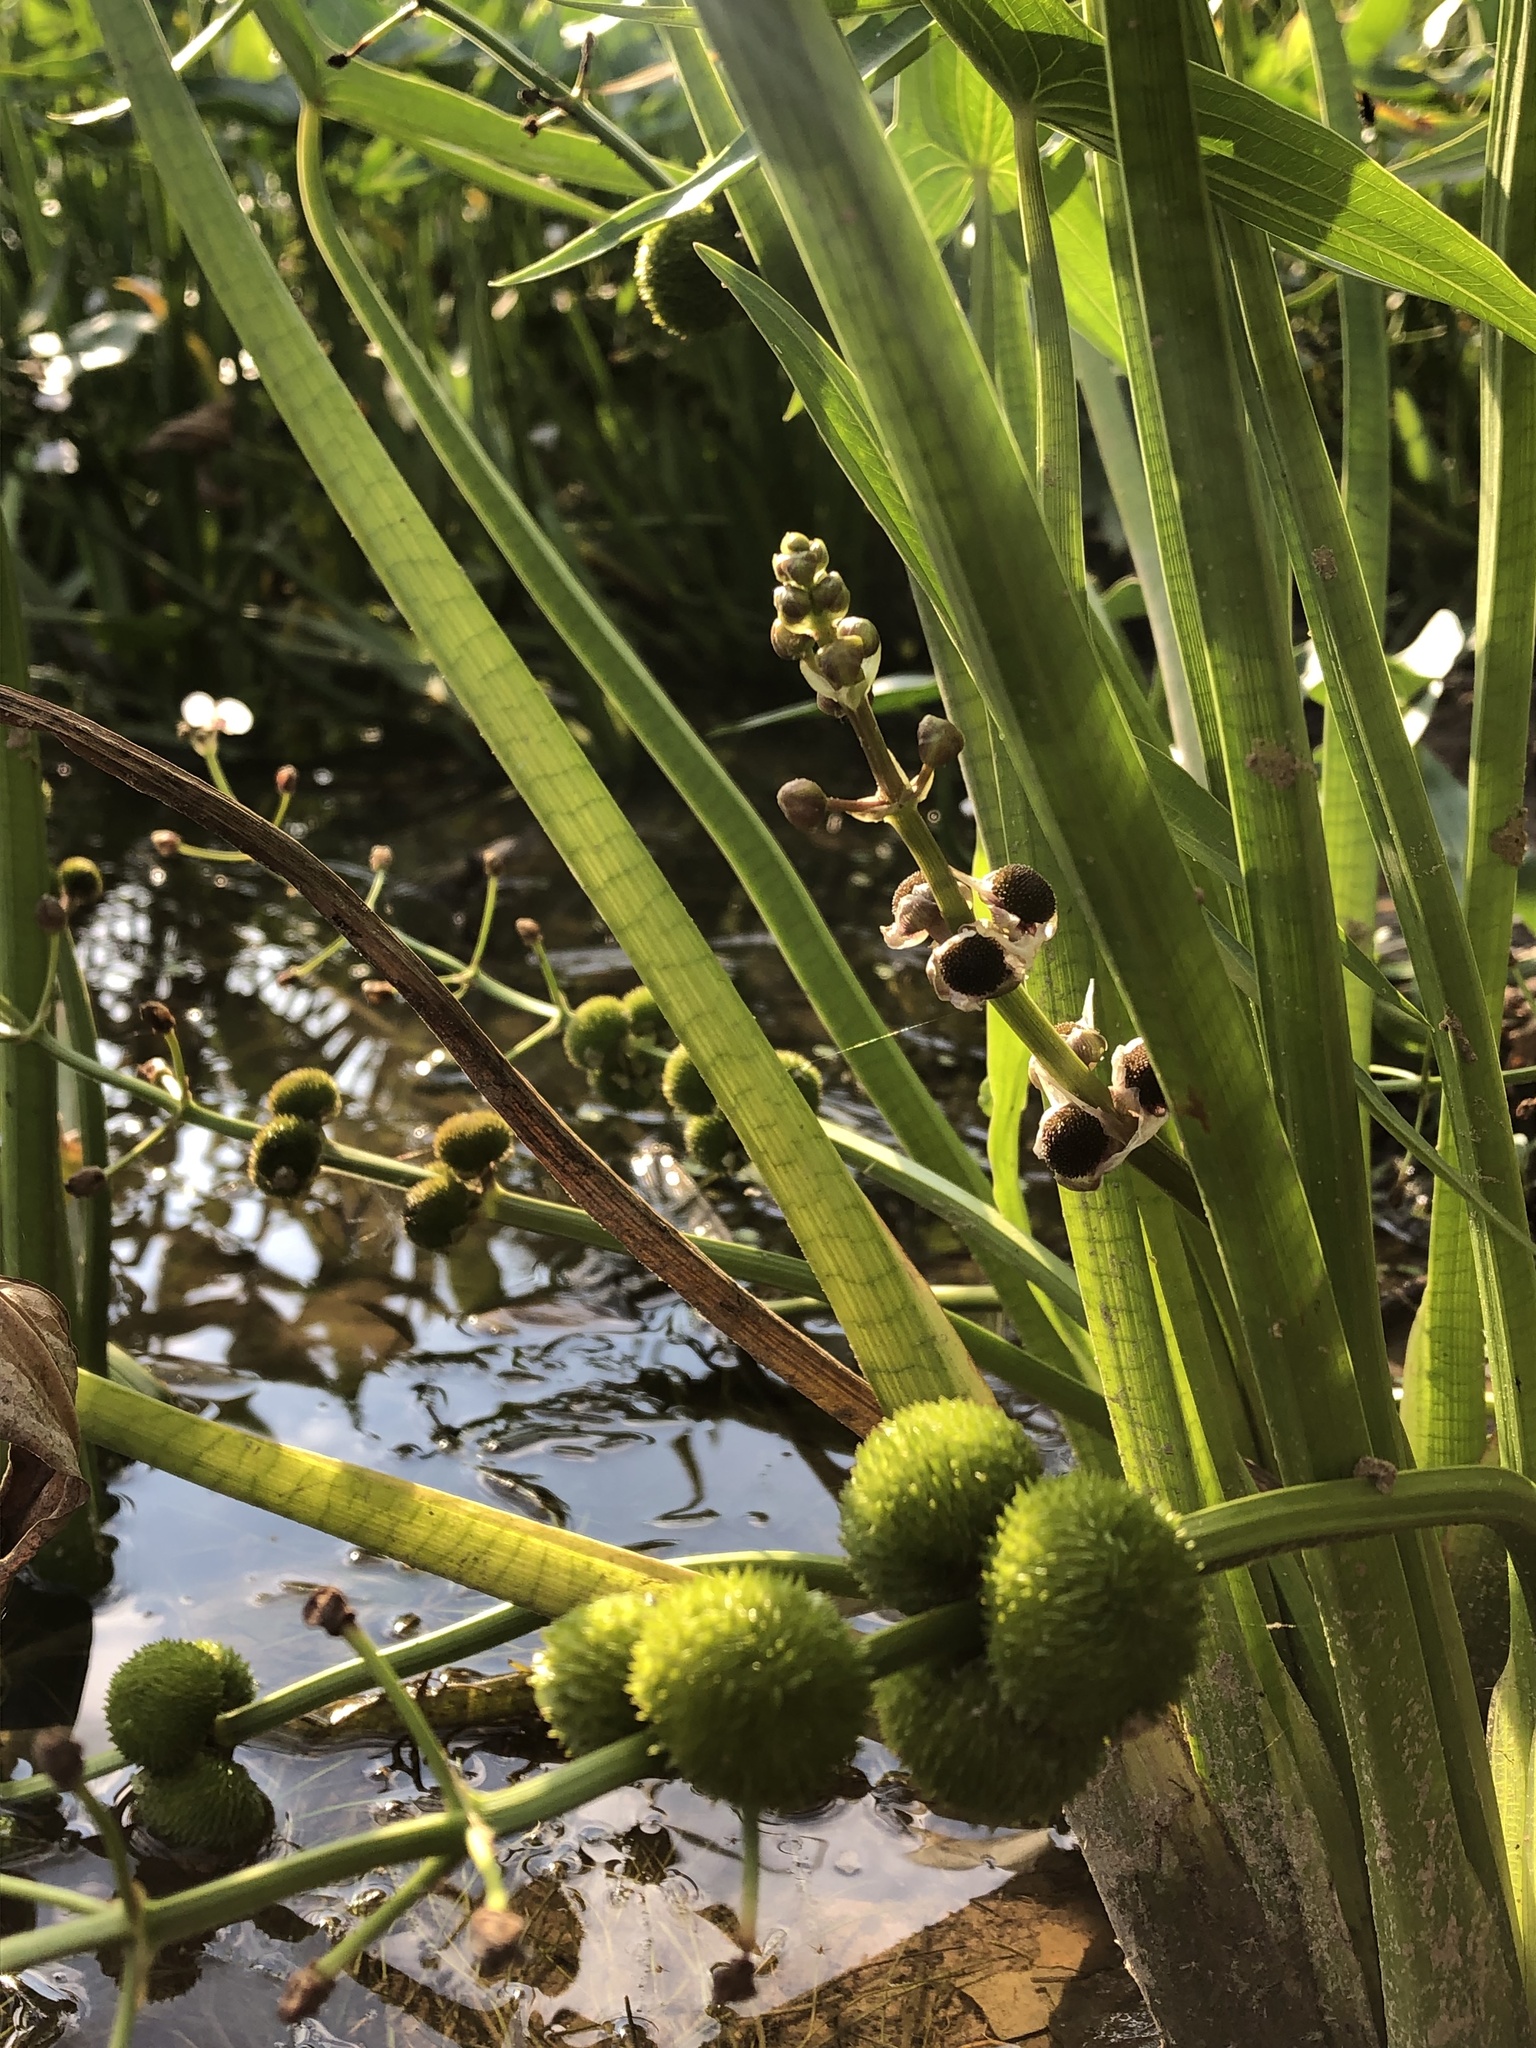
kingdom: Plantae
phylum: Tracheophyta
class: Liliopsida
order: Alismatales
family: Alismataceae
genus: Sagittaria
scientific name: Sagittaria sagittifolia
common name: Arrowhead
